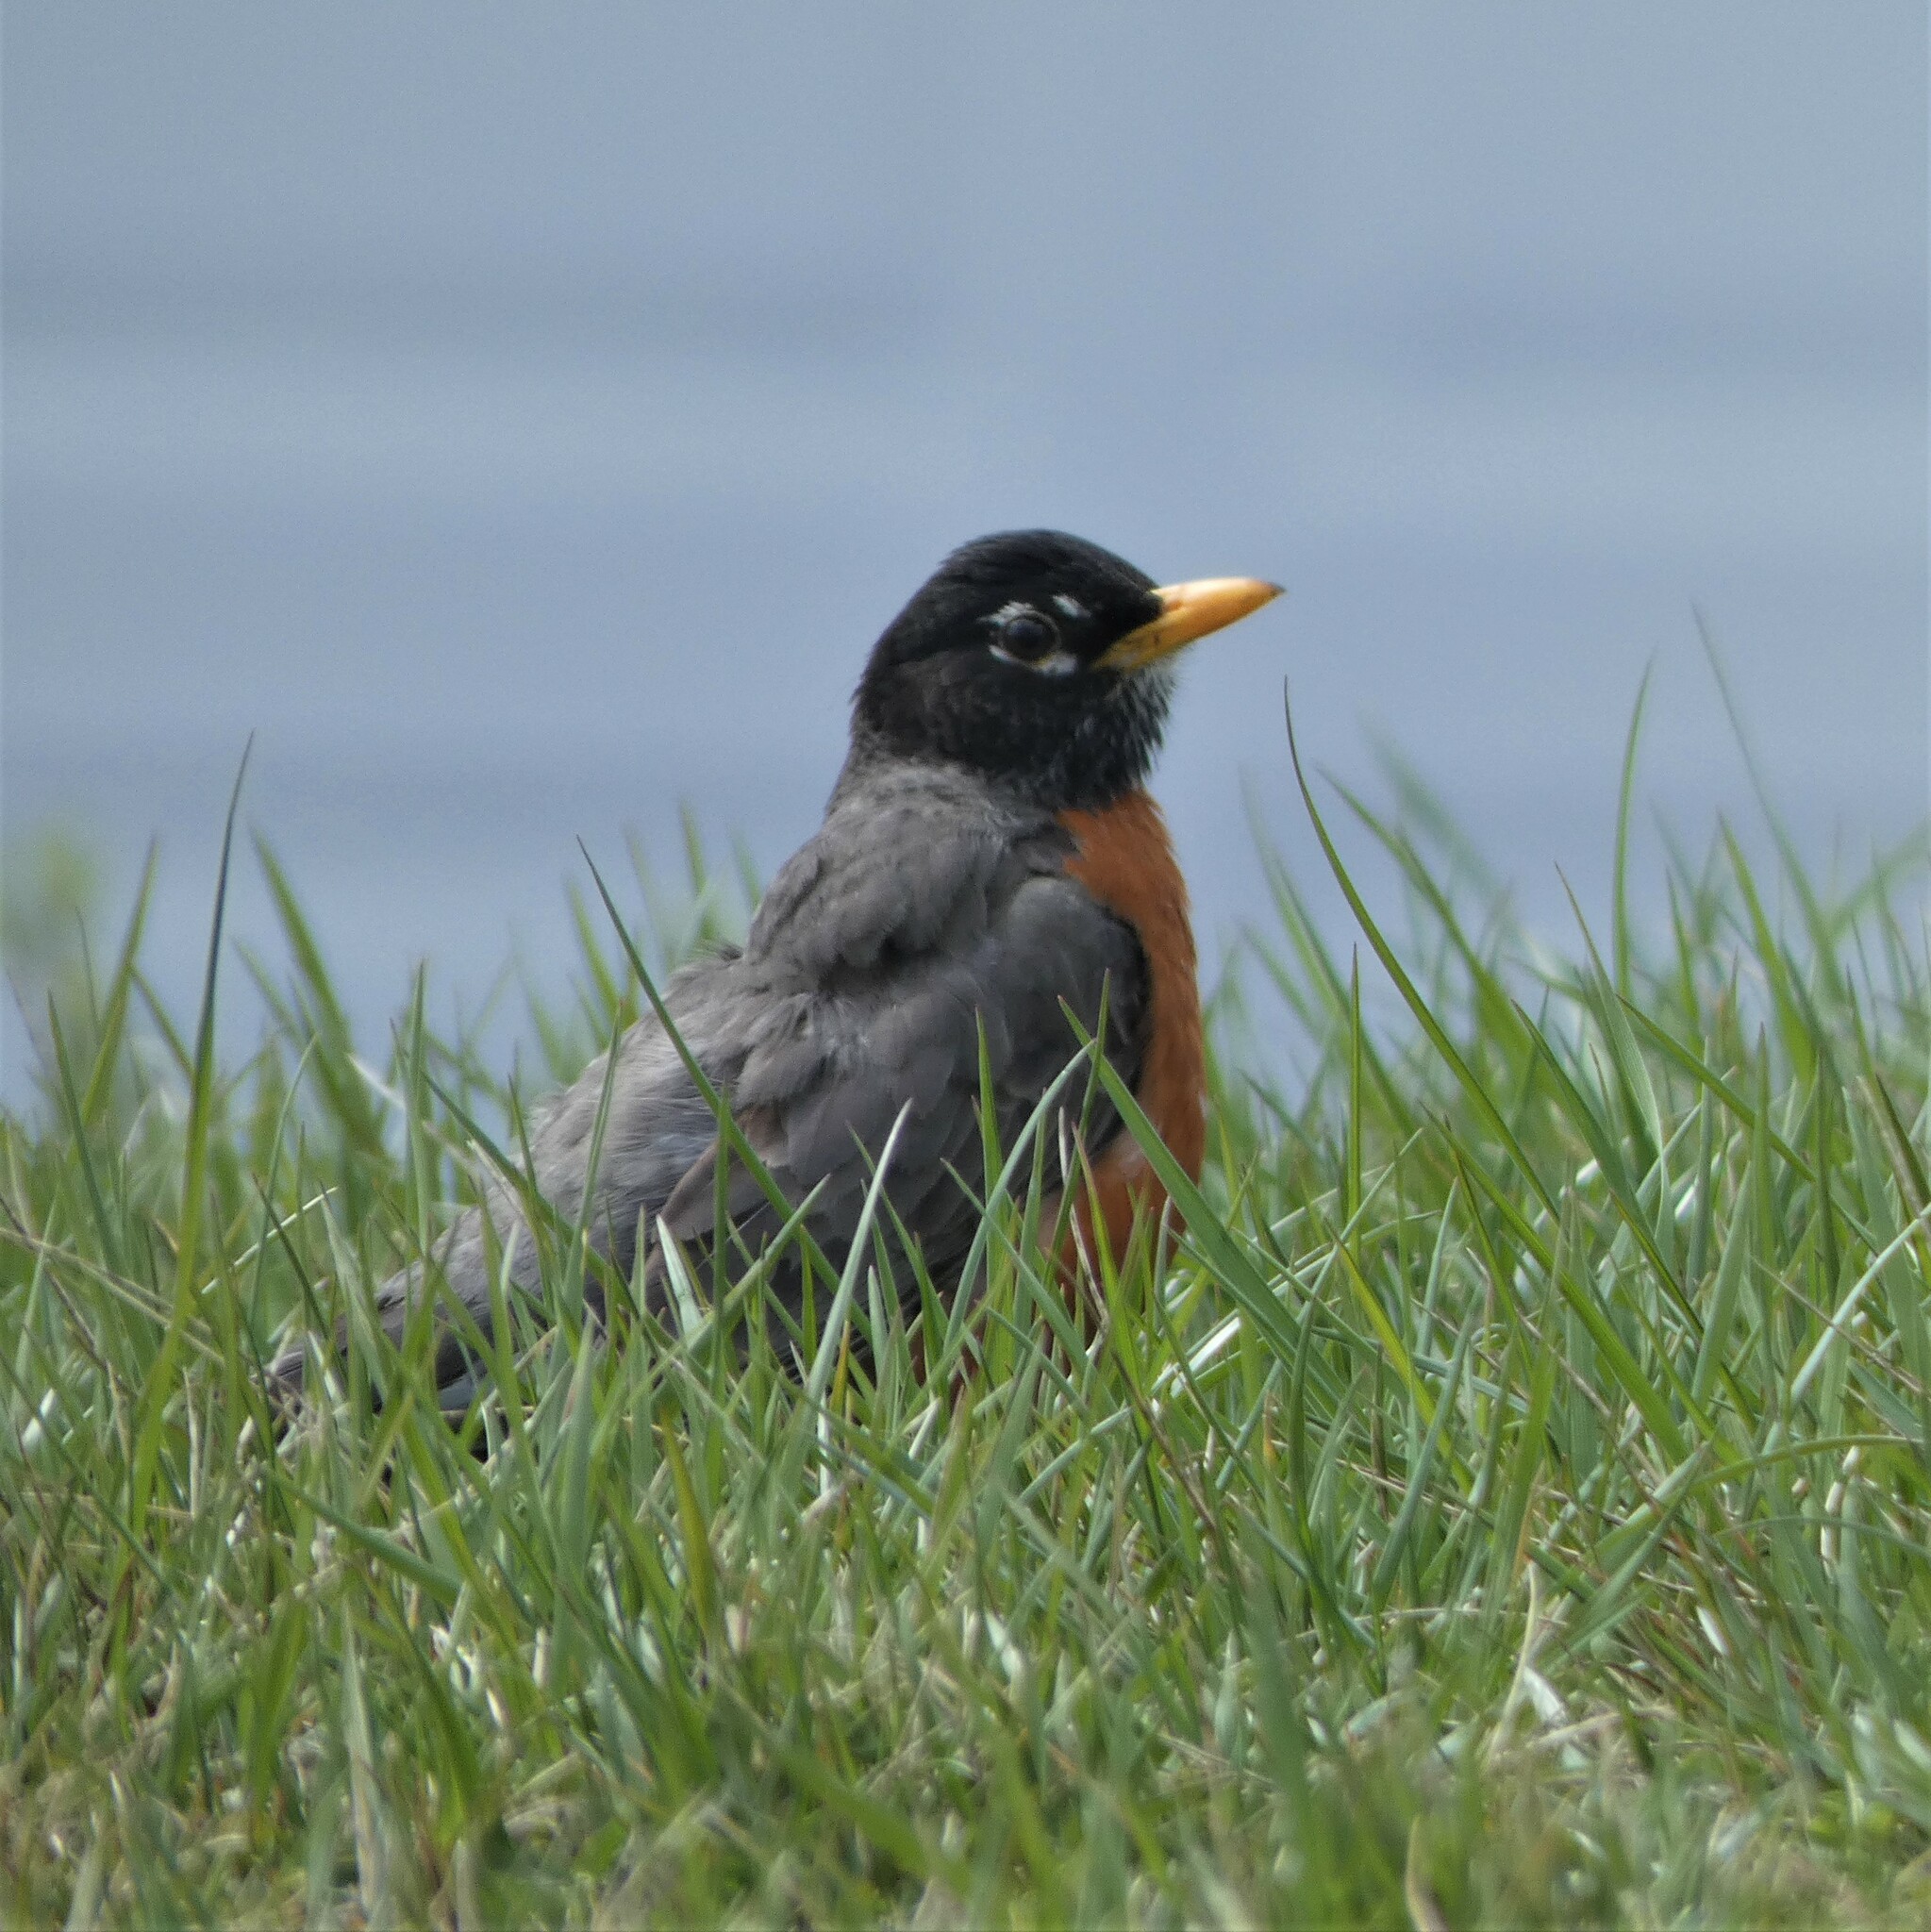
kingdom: Animalia
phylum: Chordata
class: Aves
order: Passeriformes
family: Turdidae
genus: Turdus
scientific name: Turdus migratorius
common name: American robin
